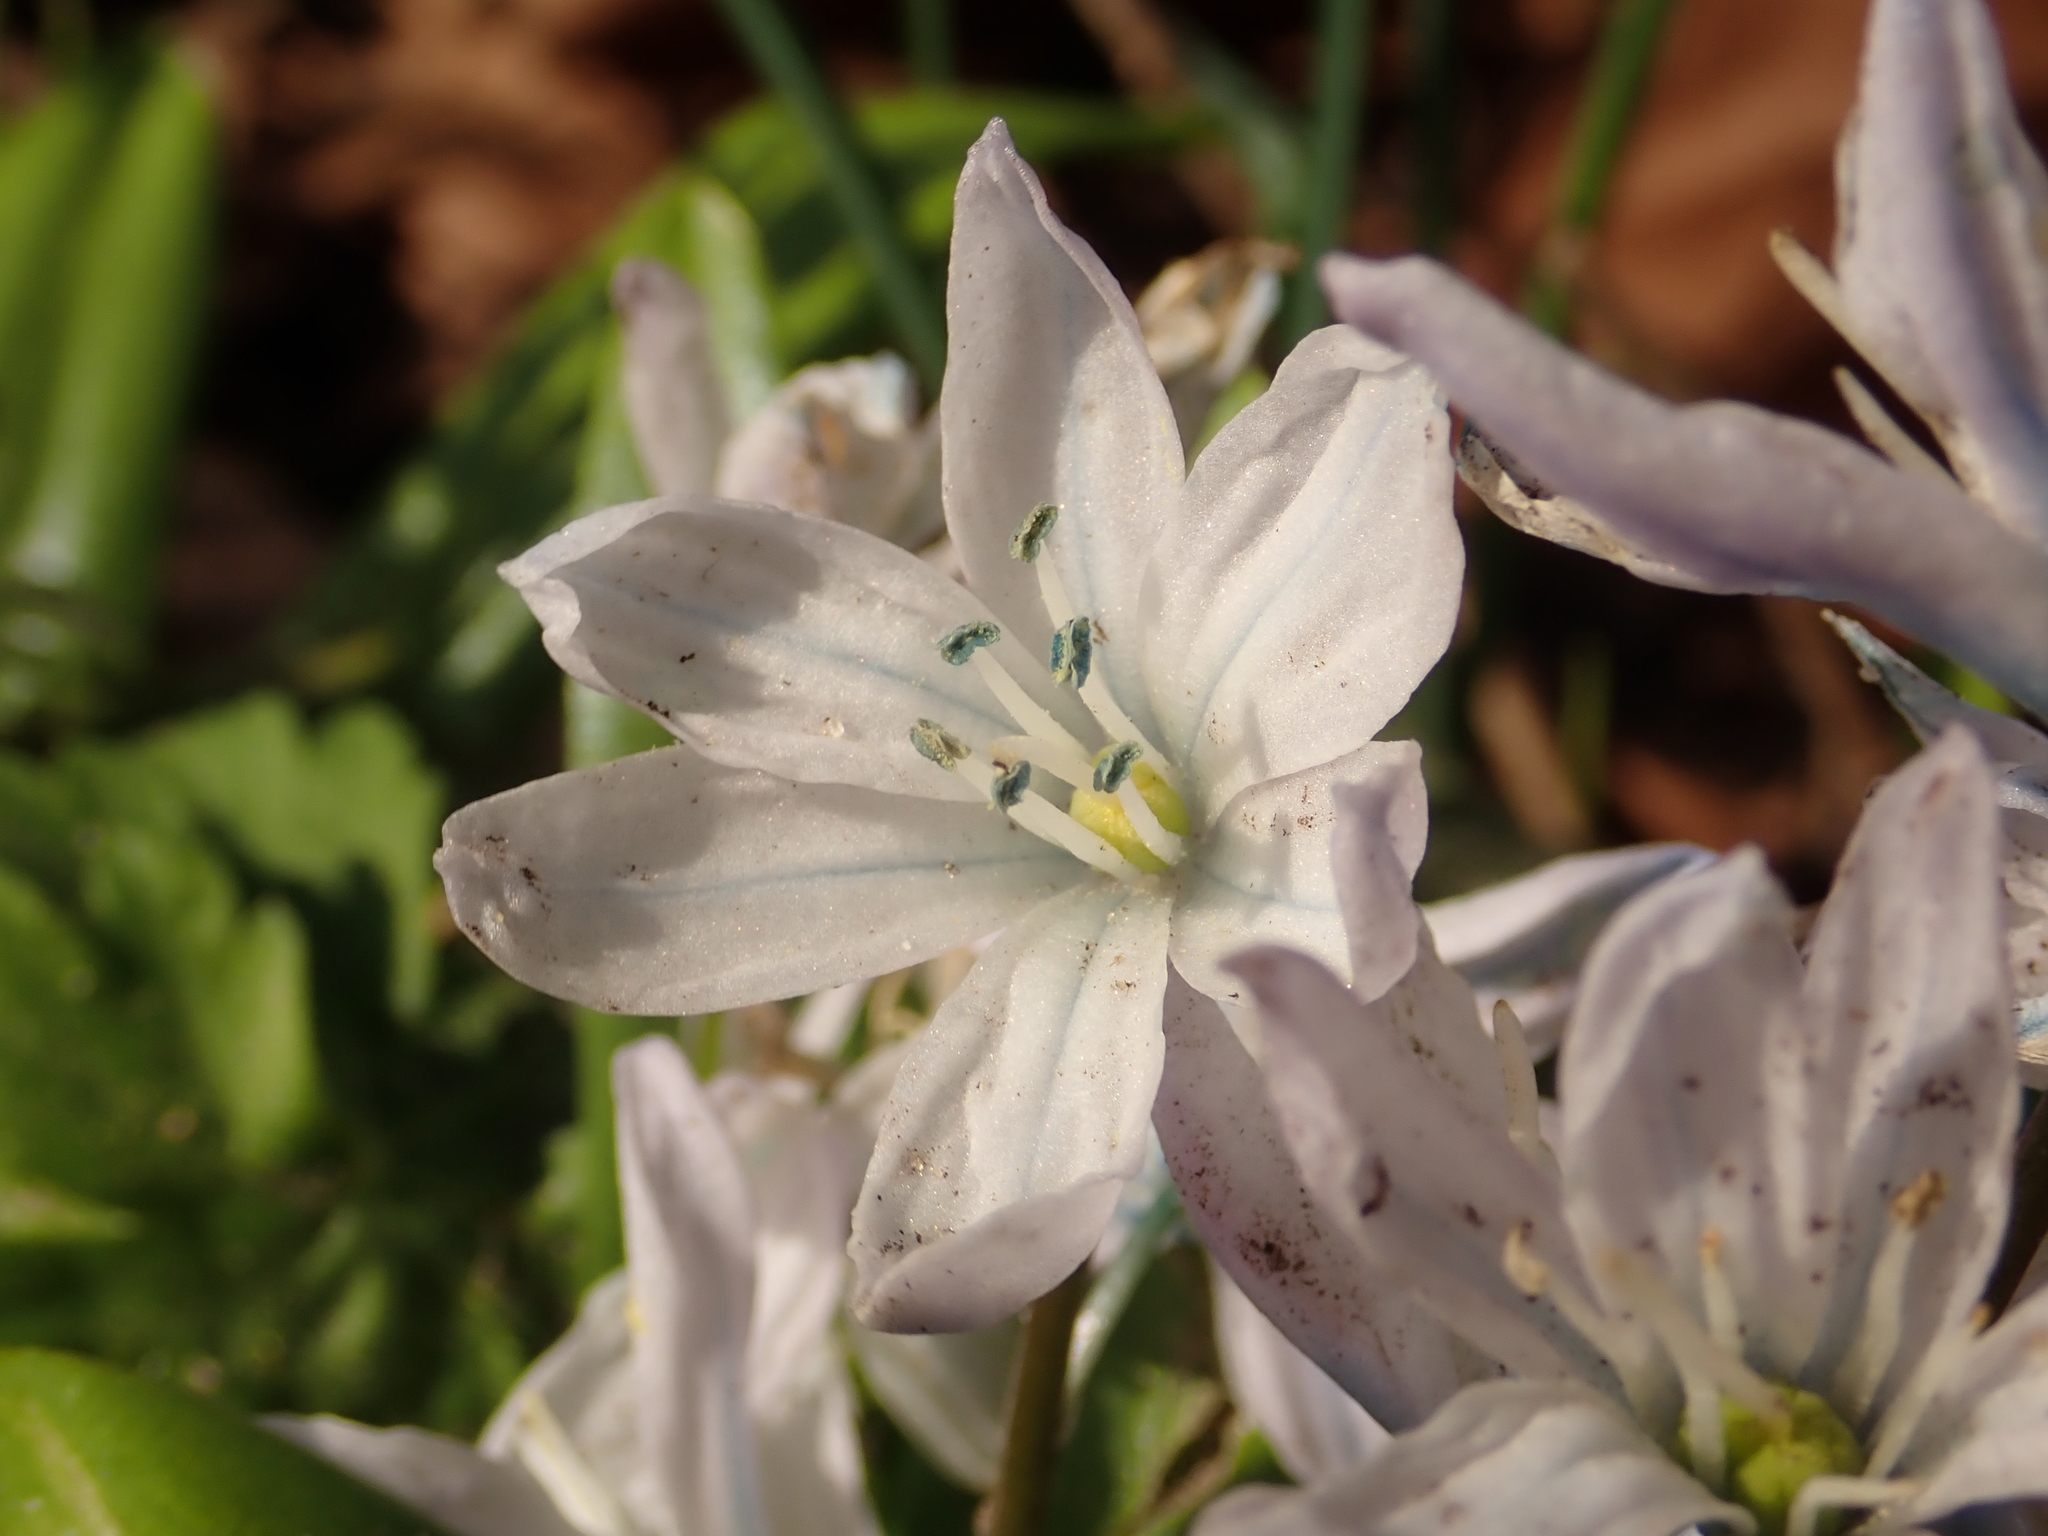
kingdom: Plantae
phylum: Tracheophyta
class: Liliopsida
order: Asparagales
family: Asparagaceae
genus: Scilla
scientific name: Scilla mischtschenkoana
